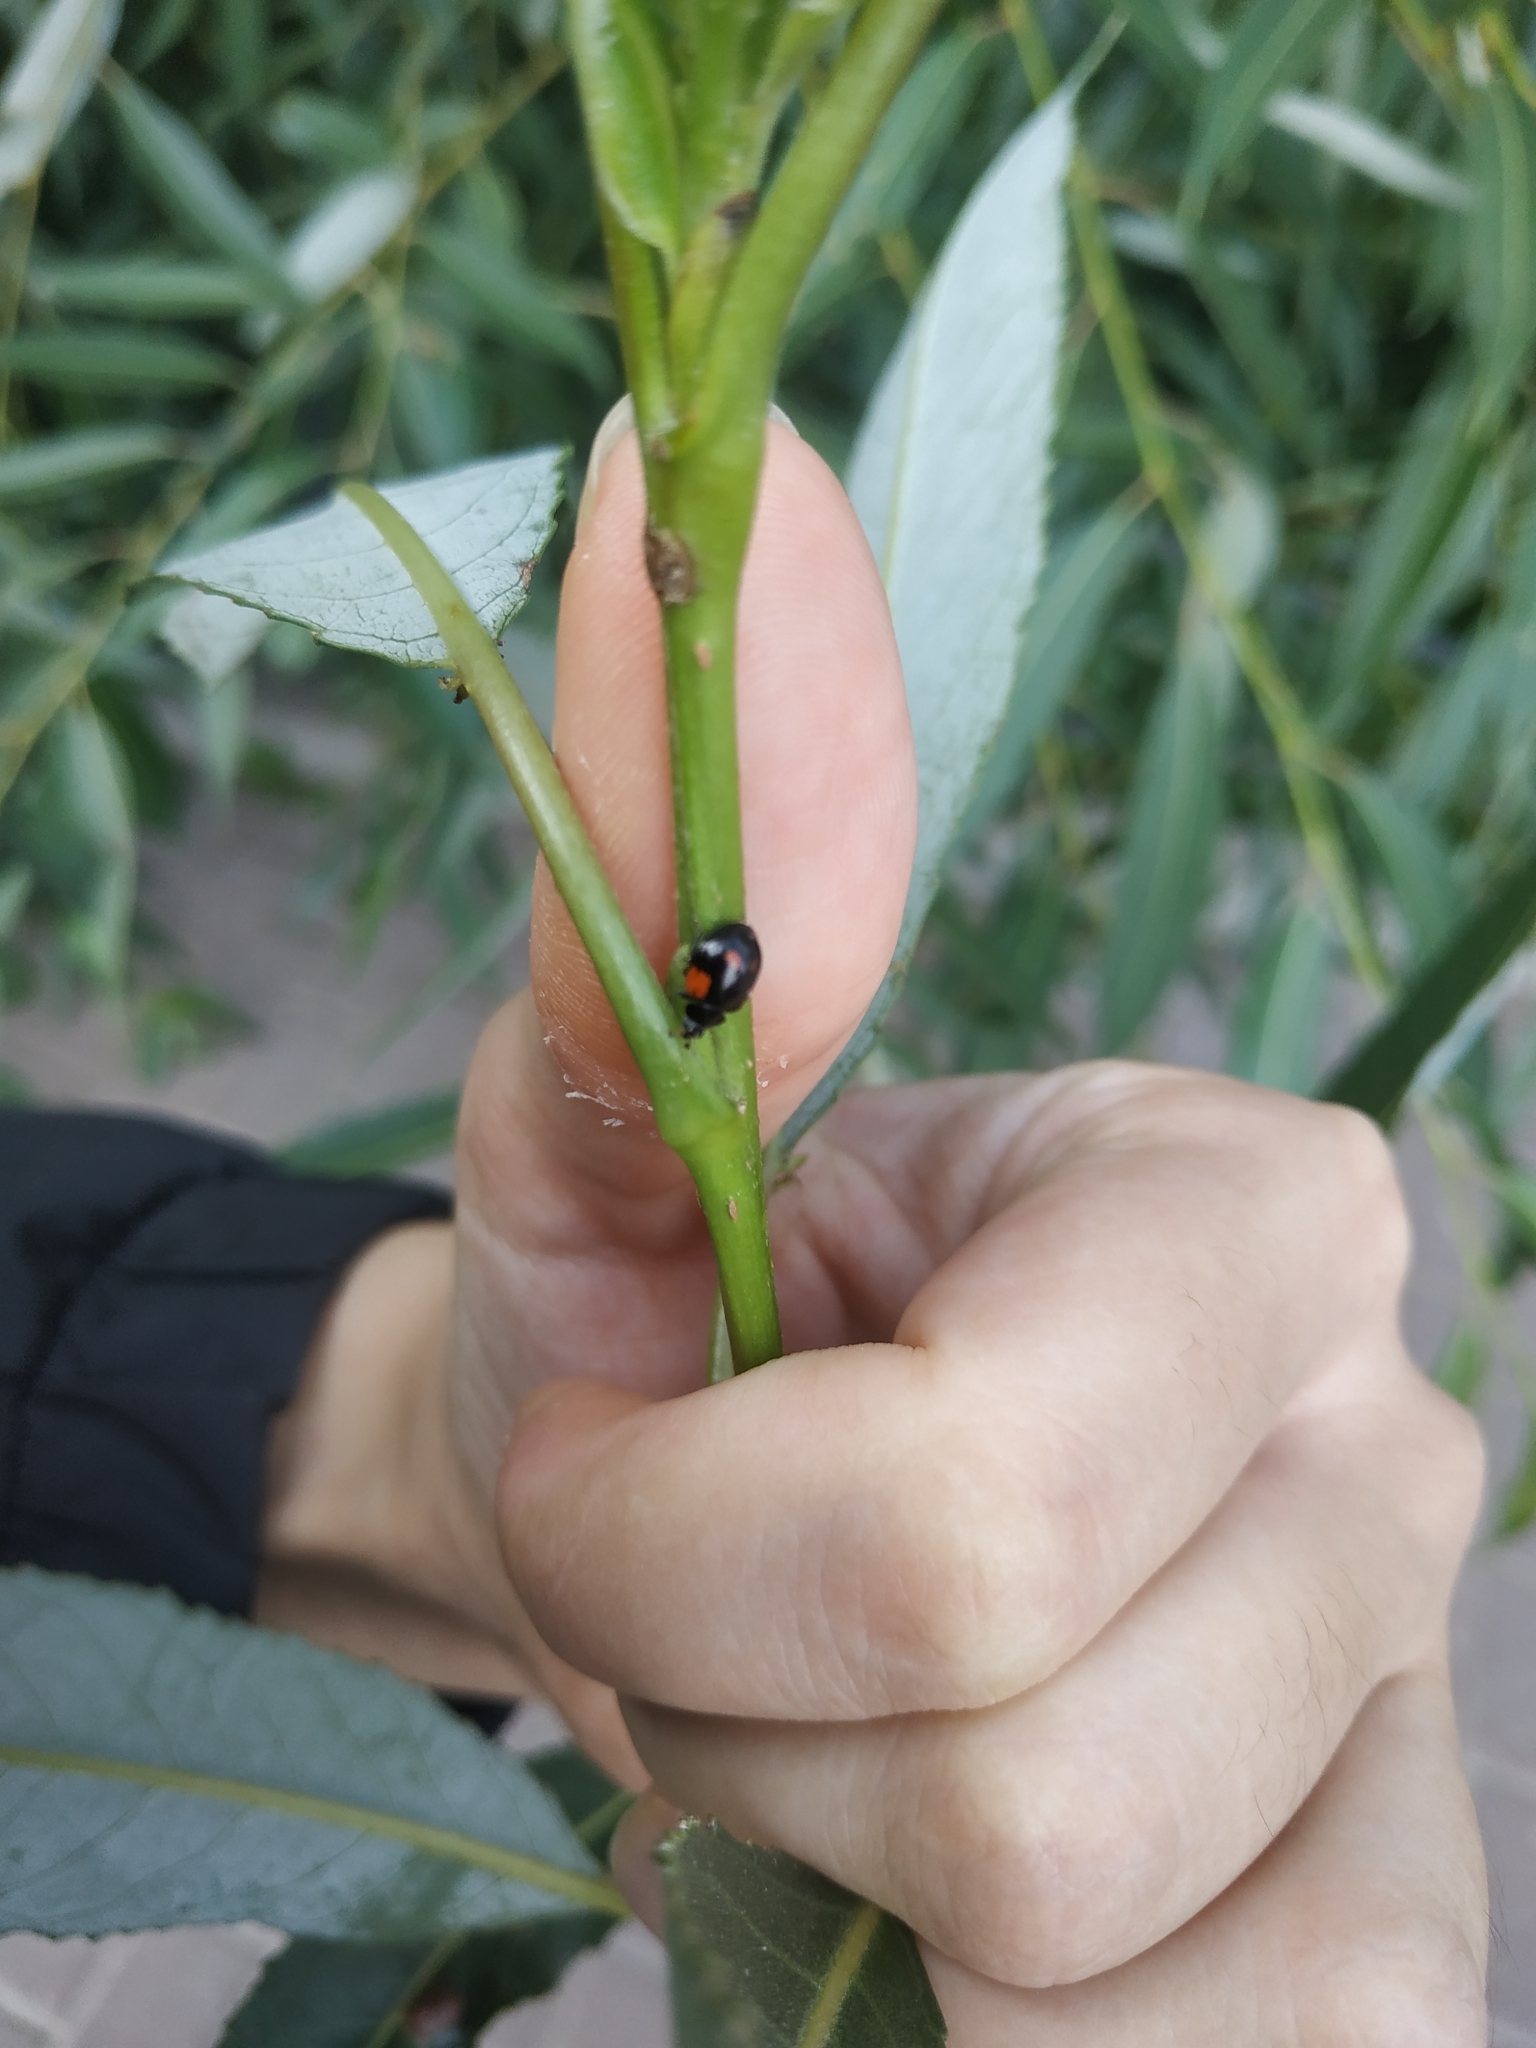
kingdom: Animalia
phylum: Arthropoda
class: Insecta
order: Coleoptera
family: Coccinellidae
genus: Adalia
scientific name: Adalia bipunctata
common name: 2-spot ladybird
